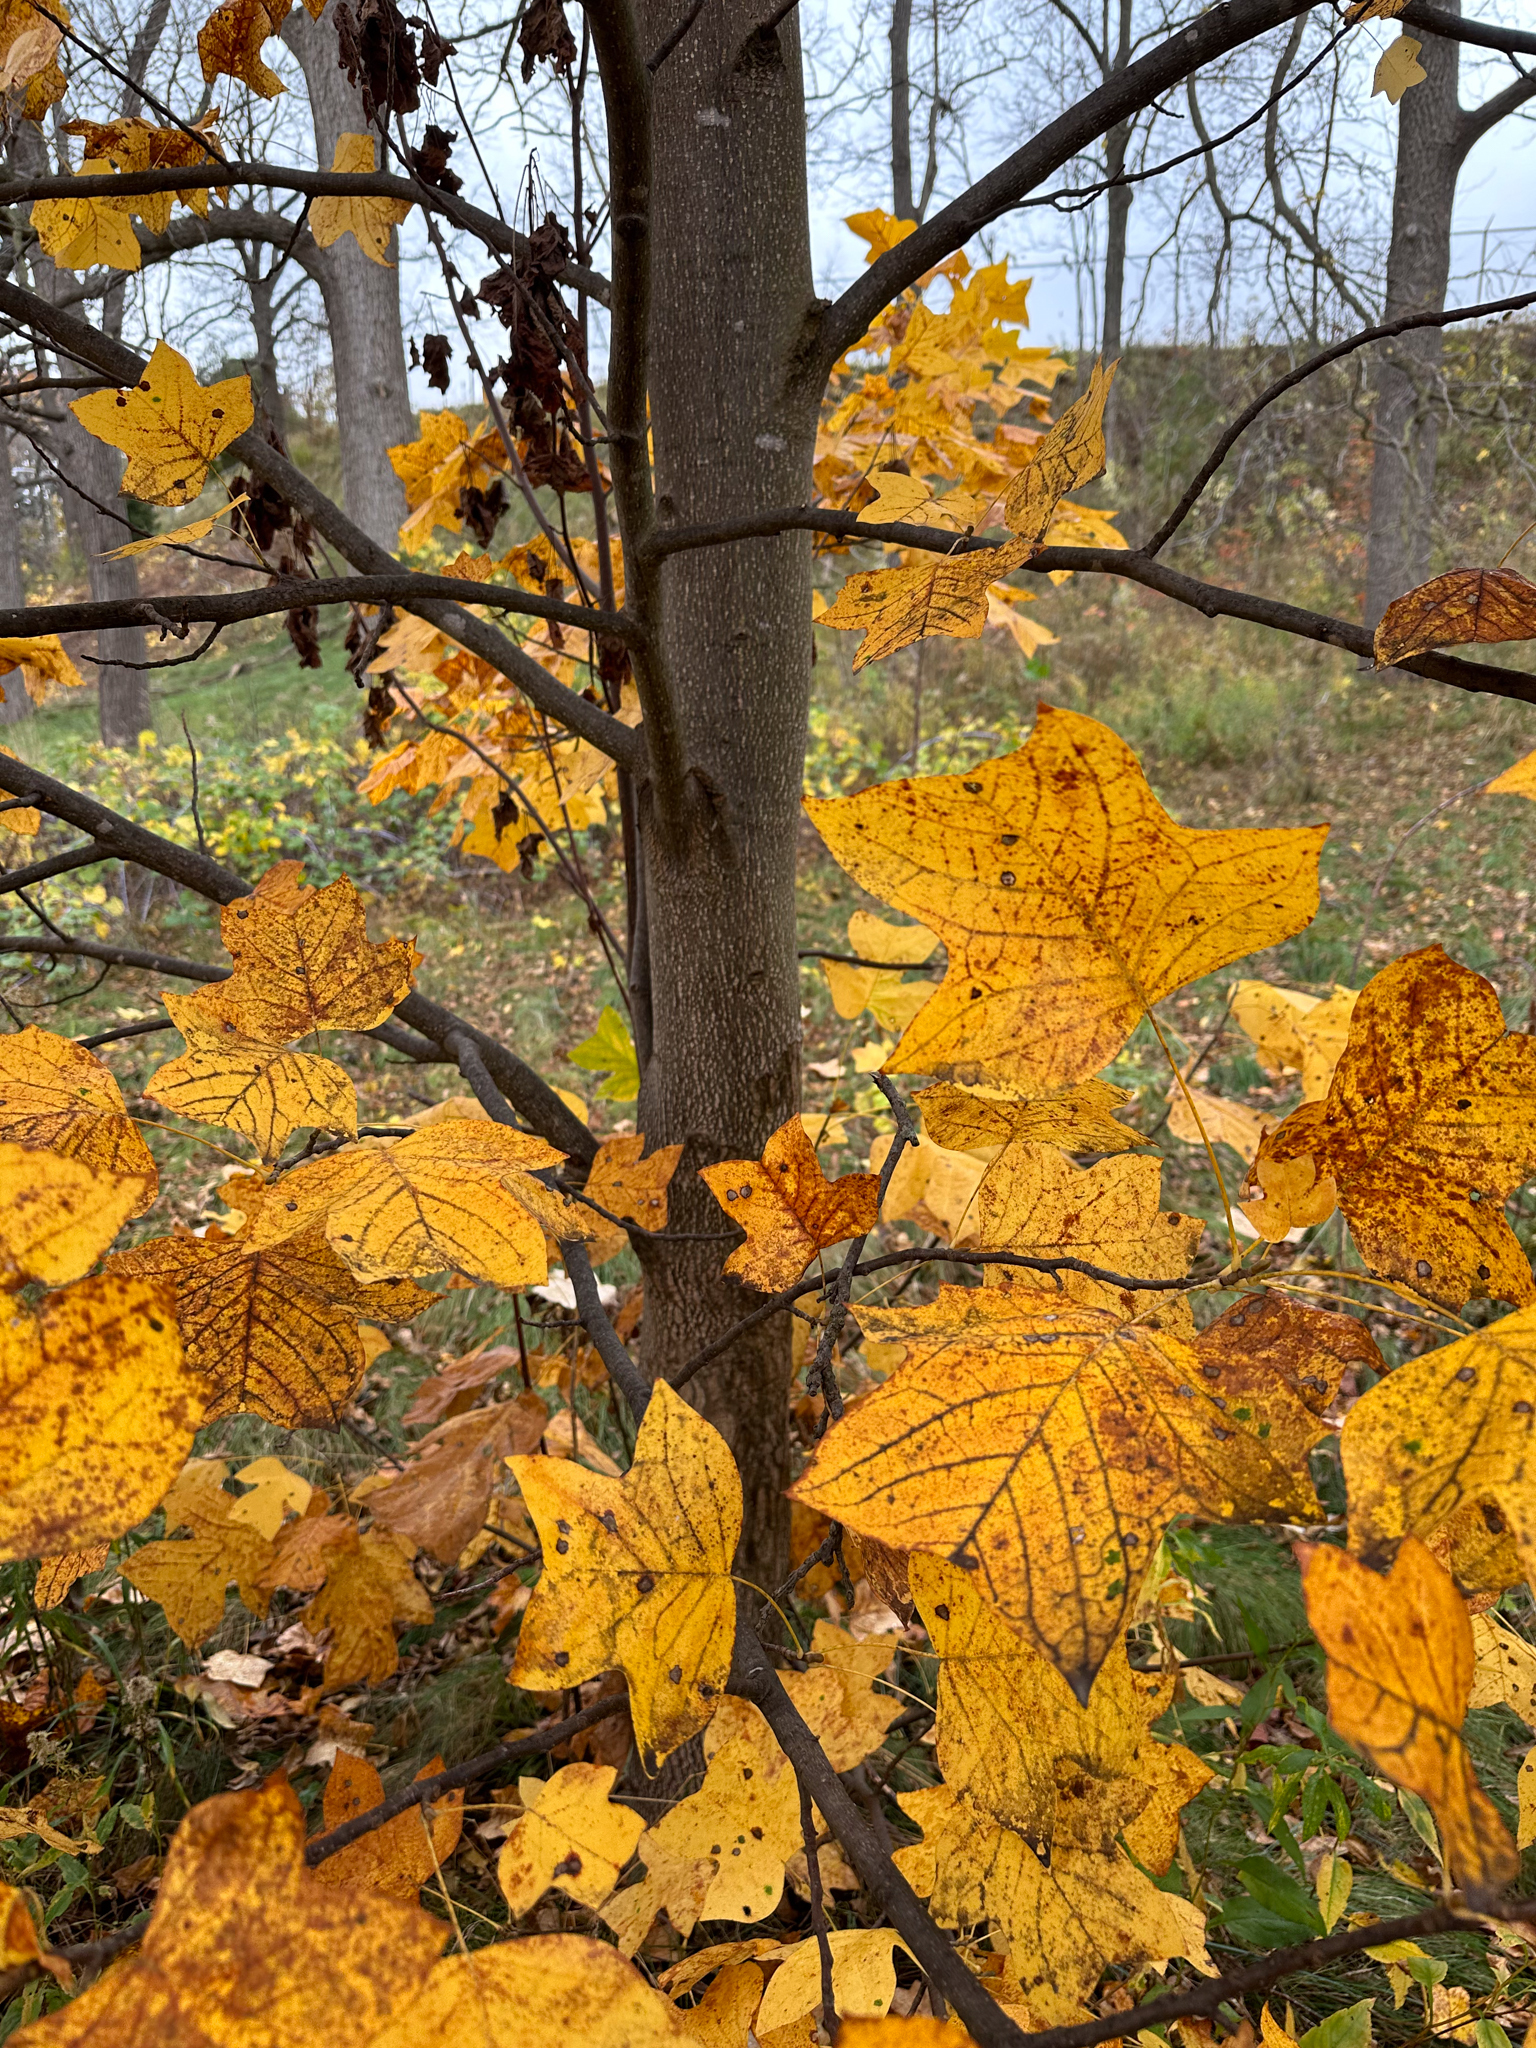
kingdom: Plantae
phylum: Tracheophyta
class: Magnoliopsida
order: Magnoliales
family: Magnoliaceae
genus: Liriodendron
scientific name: Liriodendron tulipifera
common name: Tulip tree
